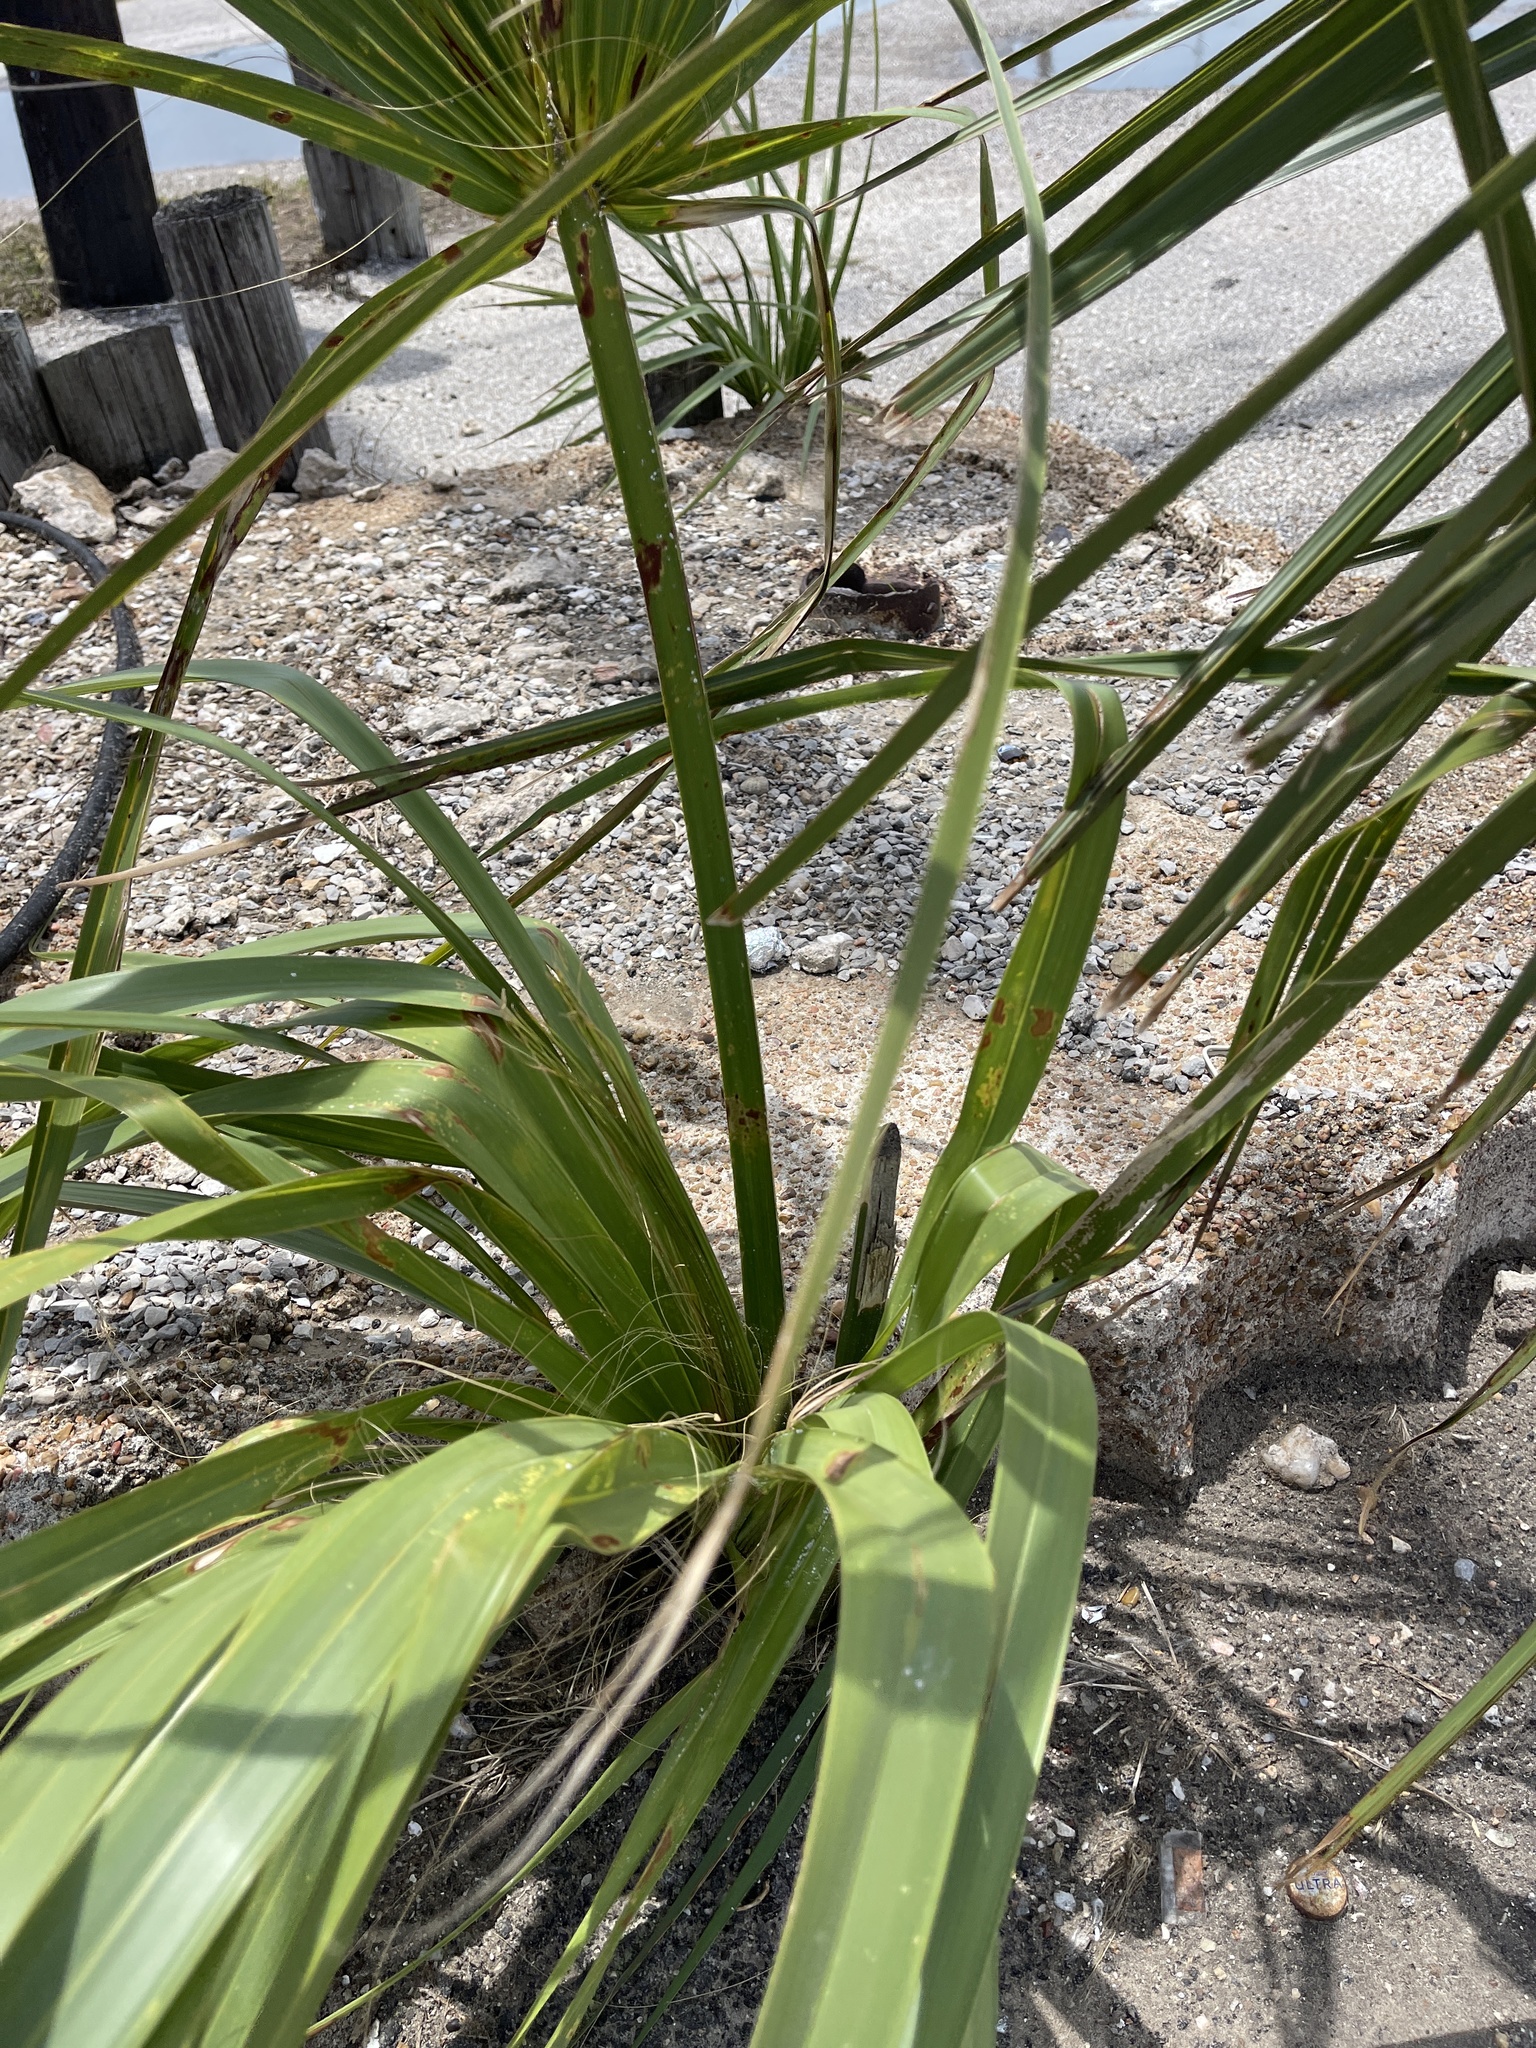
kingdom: Plantae
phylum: Tracheophyta
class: Liliopsida
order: Arecales
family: Arecaceae
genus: Sabal
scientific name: Sabal mexicana
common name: Texas palmetto
